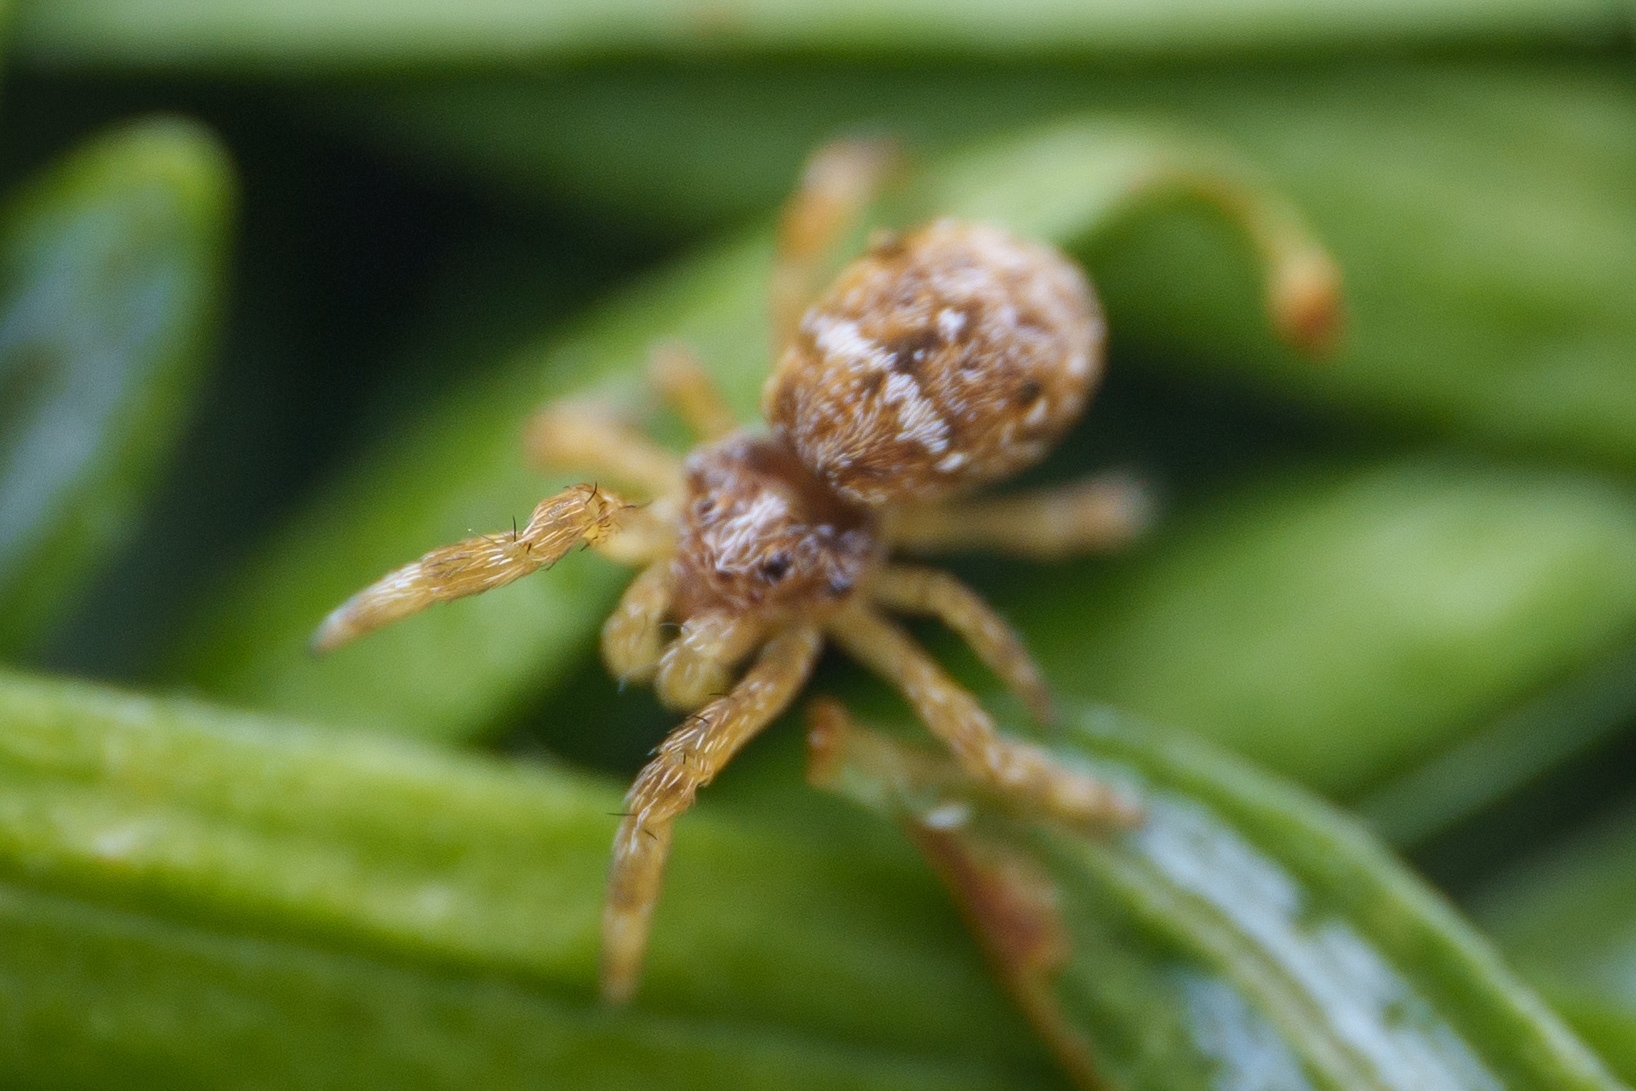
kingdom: Animalia
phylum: Arthropoda
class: Arachnida
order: Araneae
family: Uloboridae
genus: Hyptiotes
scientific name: Hyptiotes gertschi
